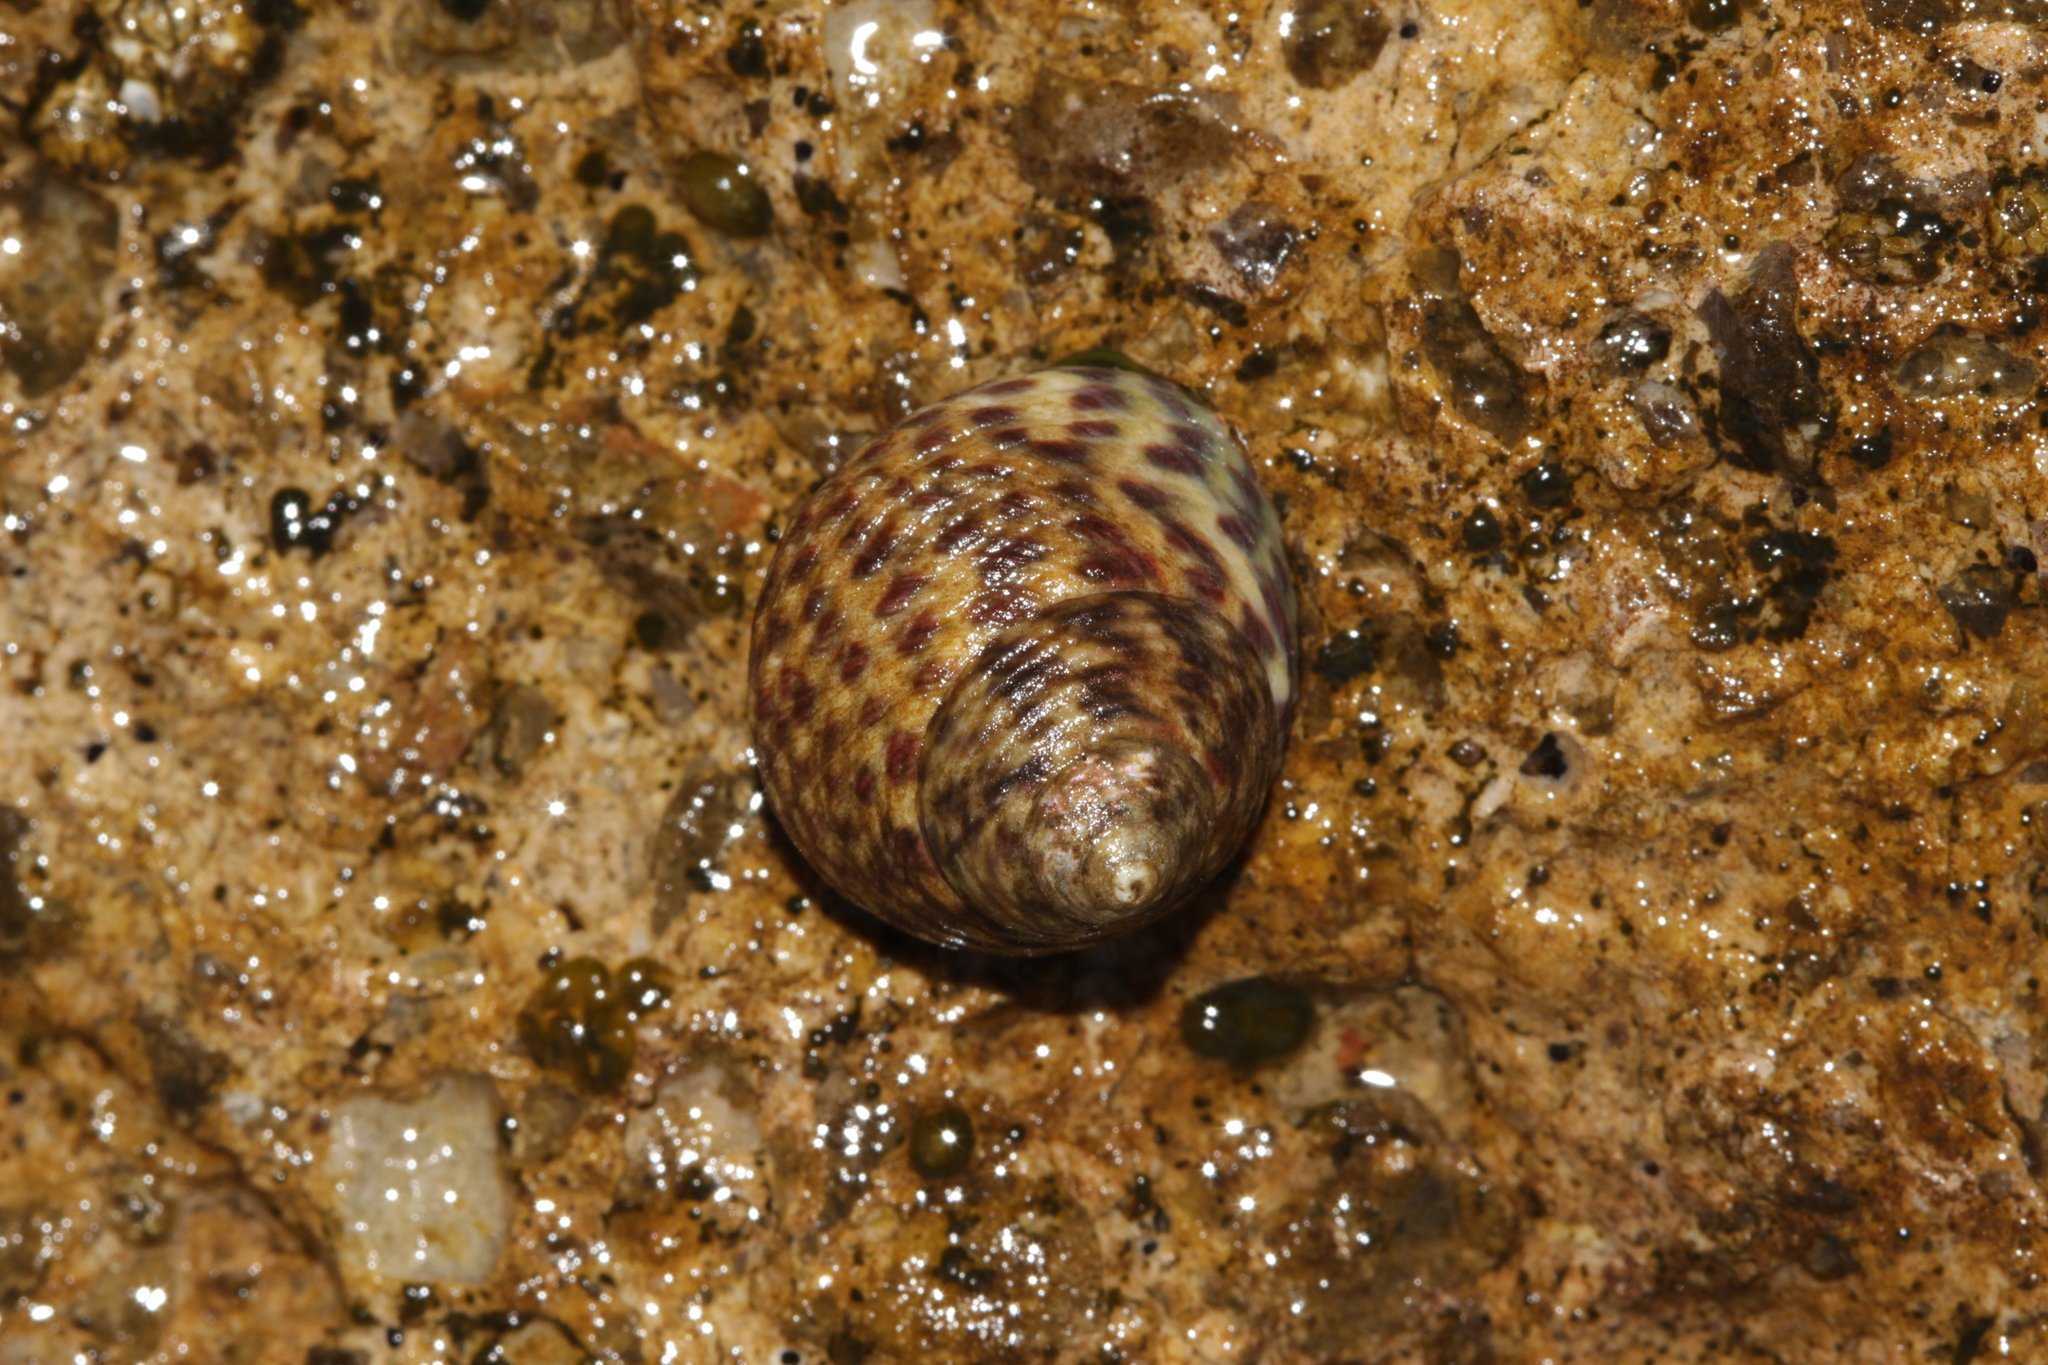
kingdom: Animalia
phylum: Mollusca
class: Gastropoda
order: Trochida
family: Trochidae
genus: Phorcus
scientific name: Phorcus turbinatus
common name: Turbinate monodont
